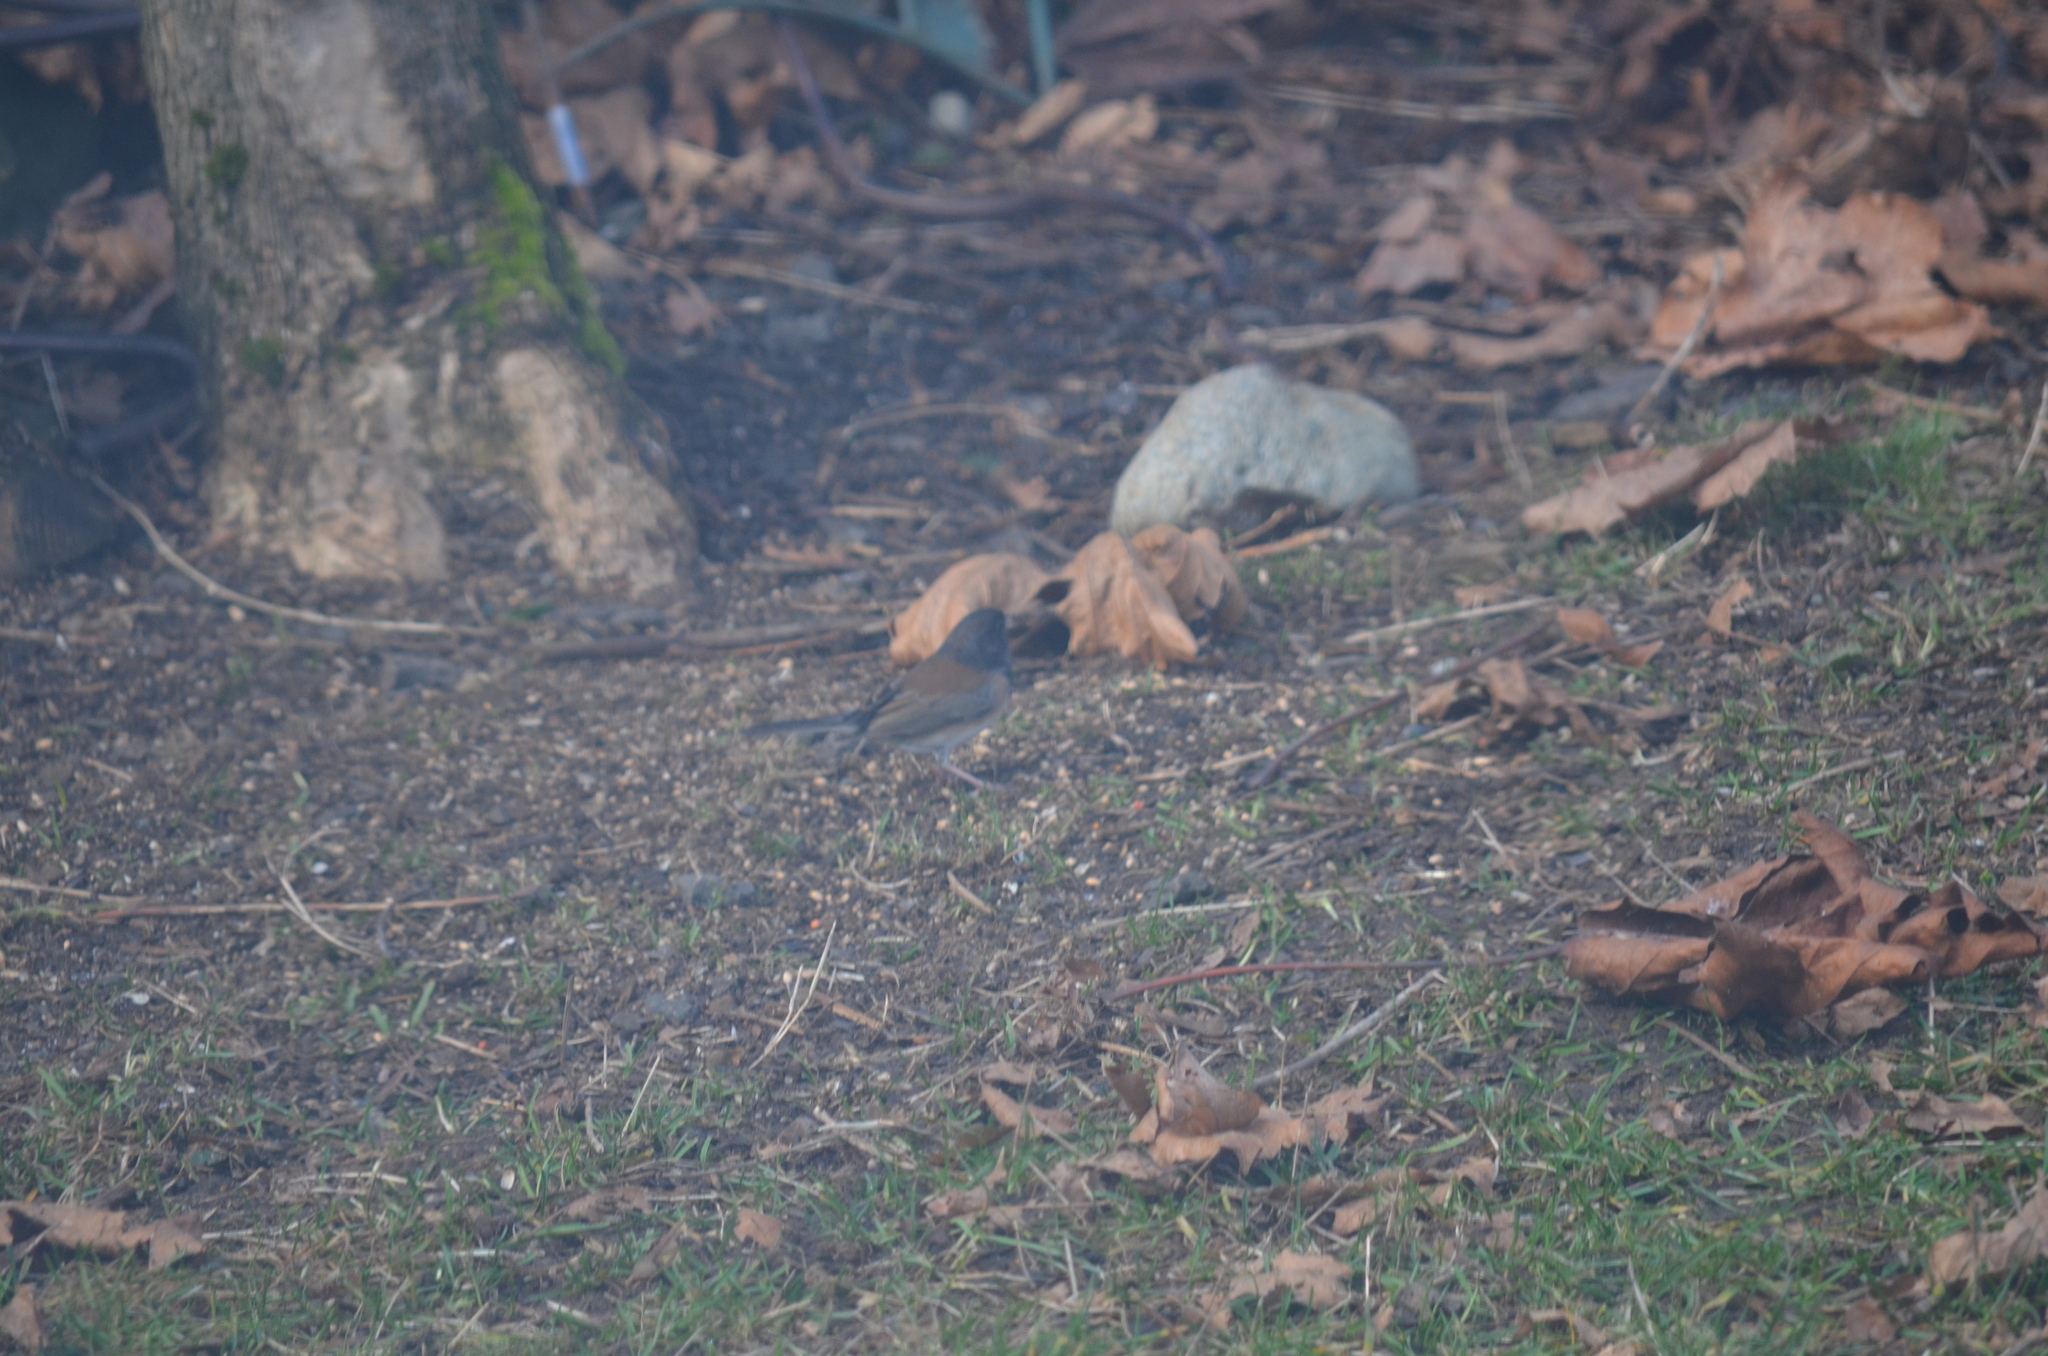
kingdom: Animalia
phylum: Chordata
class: Aves
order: Passeriformes
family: Passerellidae
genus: Junco
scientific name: Junco hyemalis
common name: Dark-eyed junco
